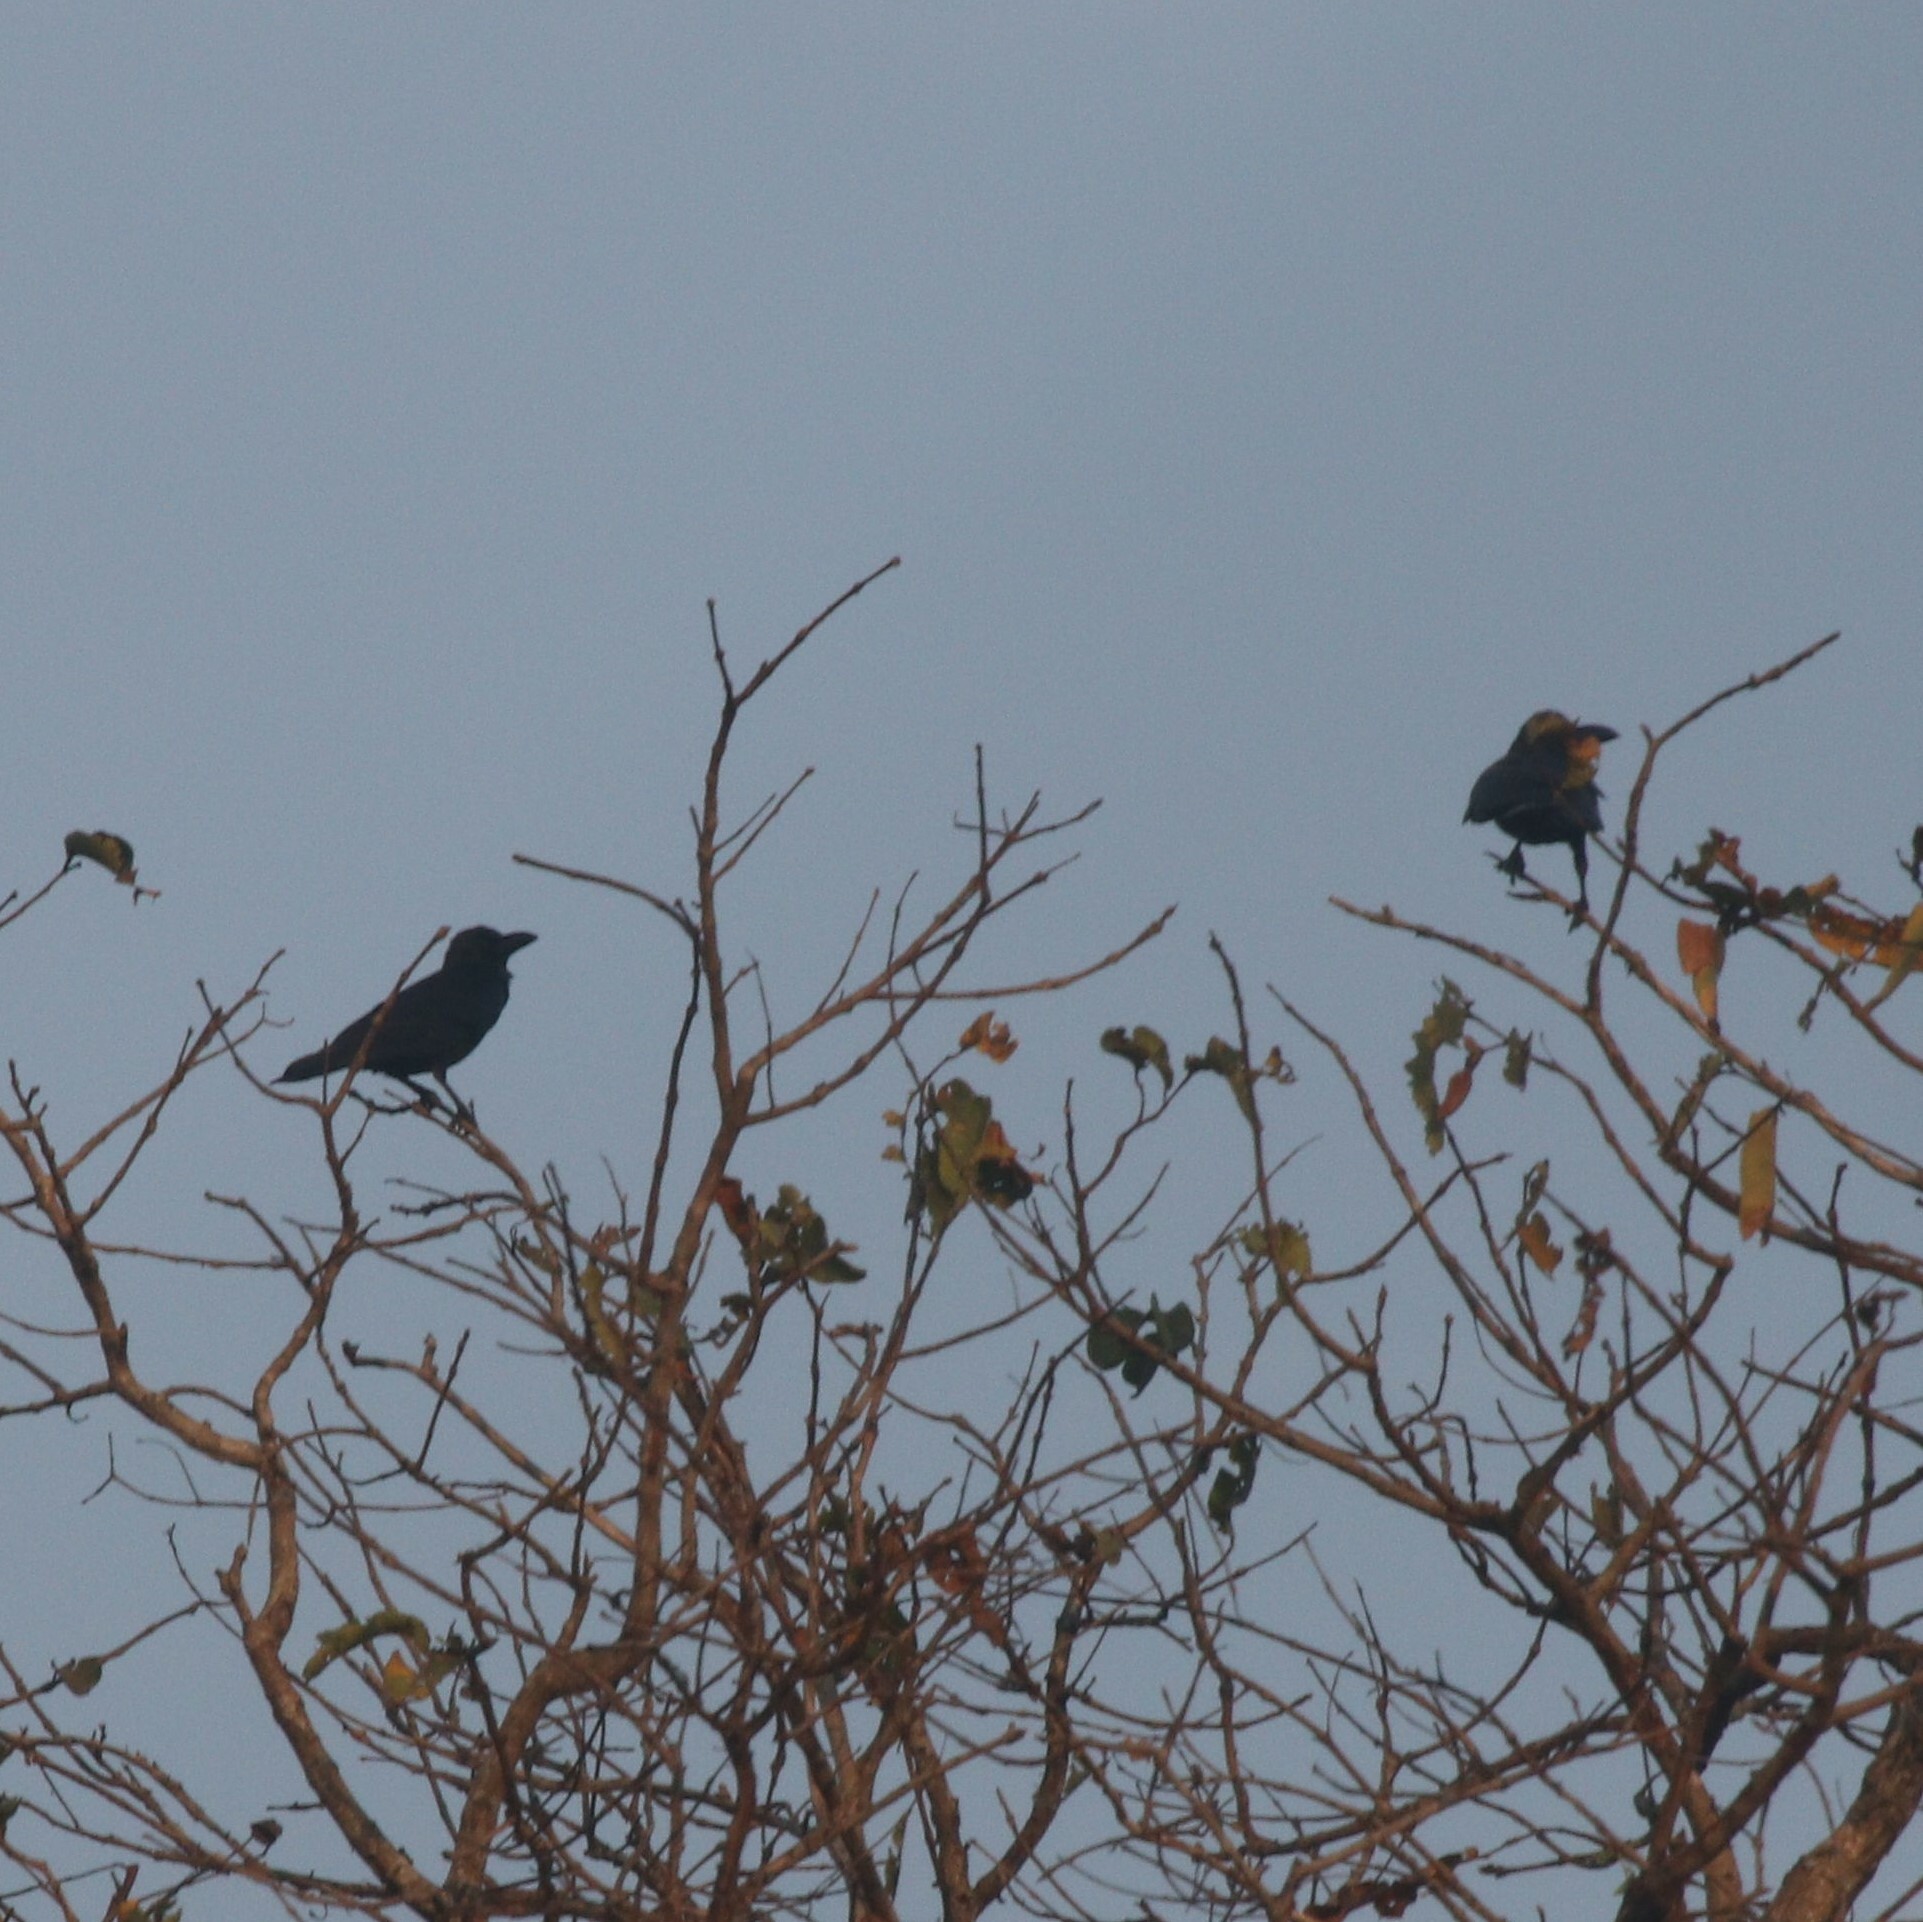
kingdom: Animalia
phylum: Chordata
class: Aves
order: Passeriformes
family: Corvidae
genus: Corvus
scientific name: Corvus macrorhynchos
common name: Large-billed crow
